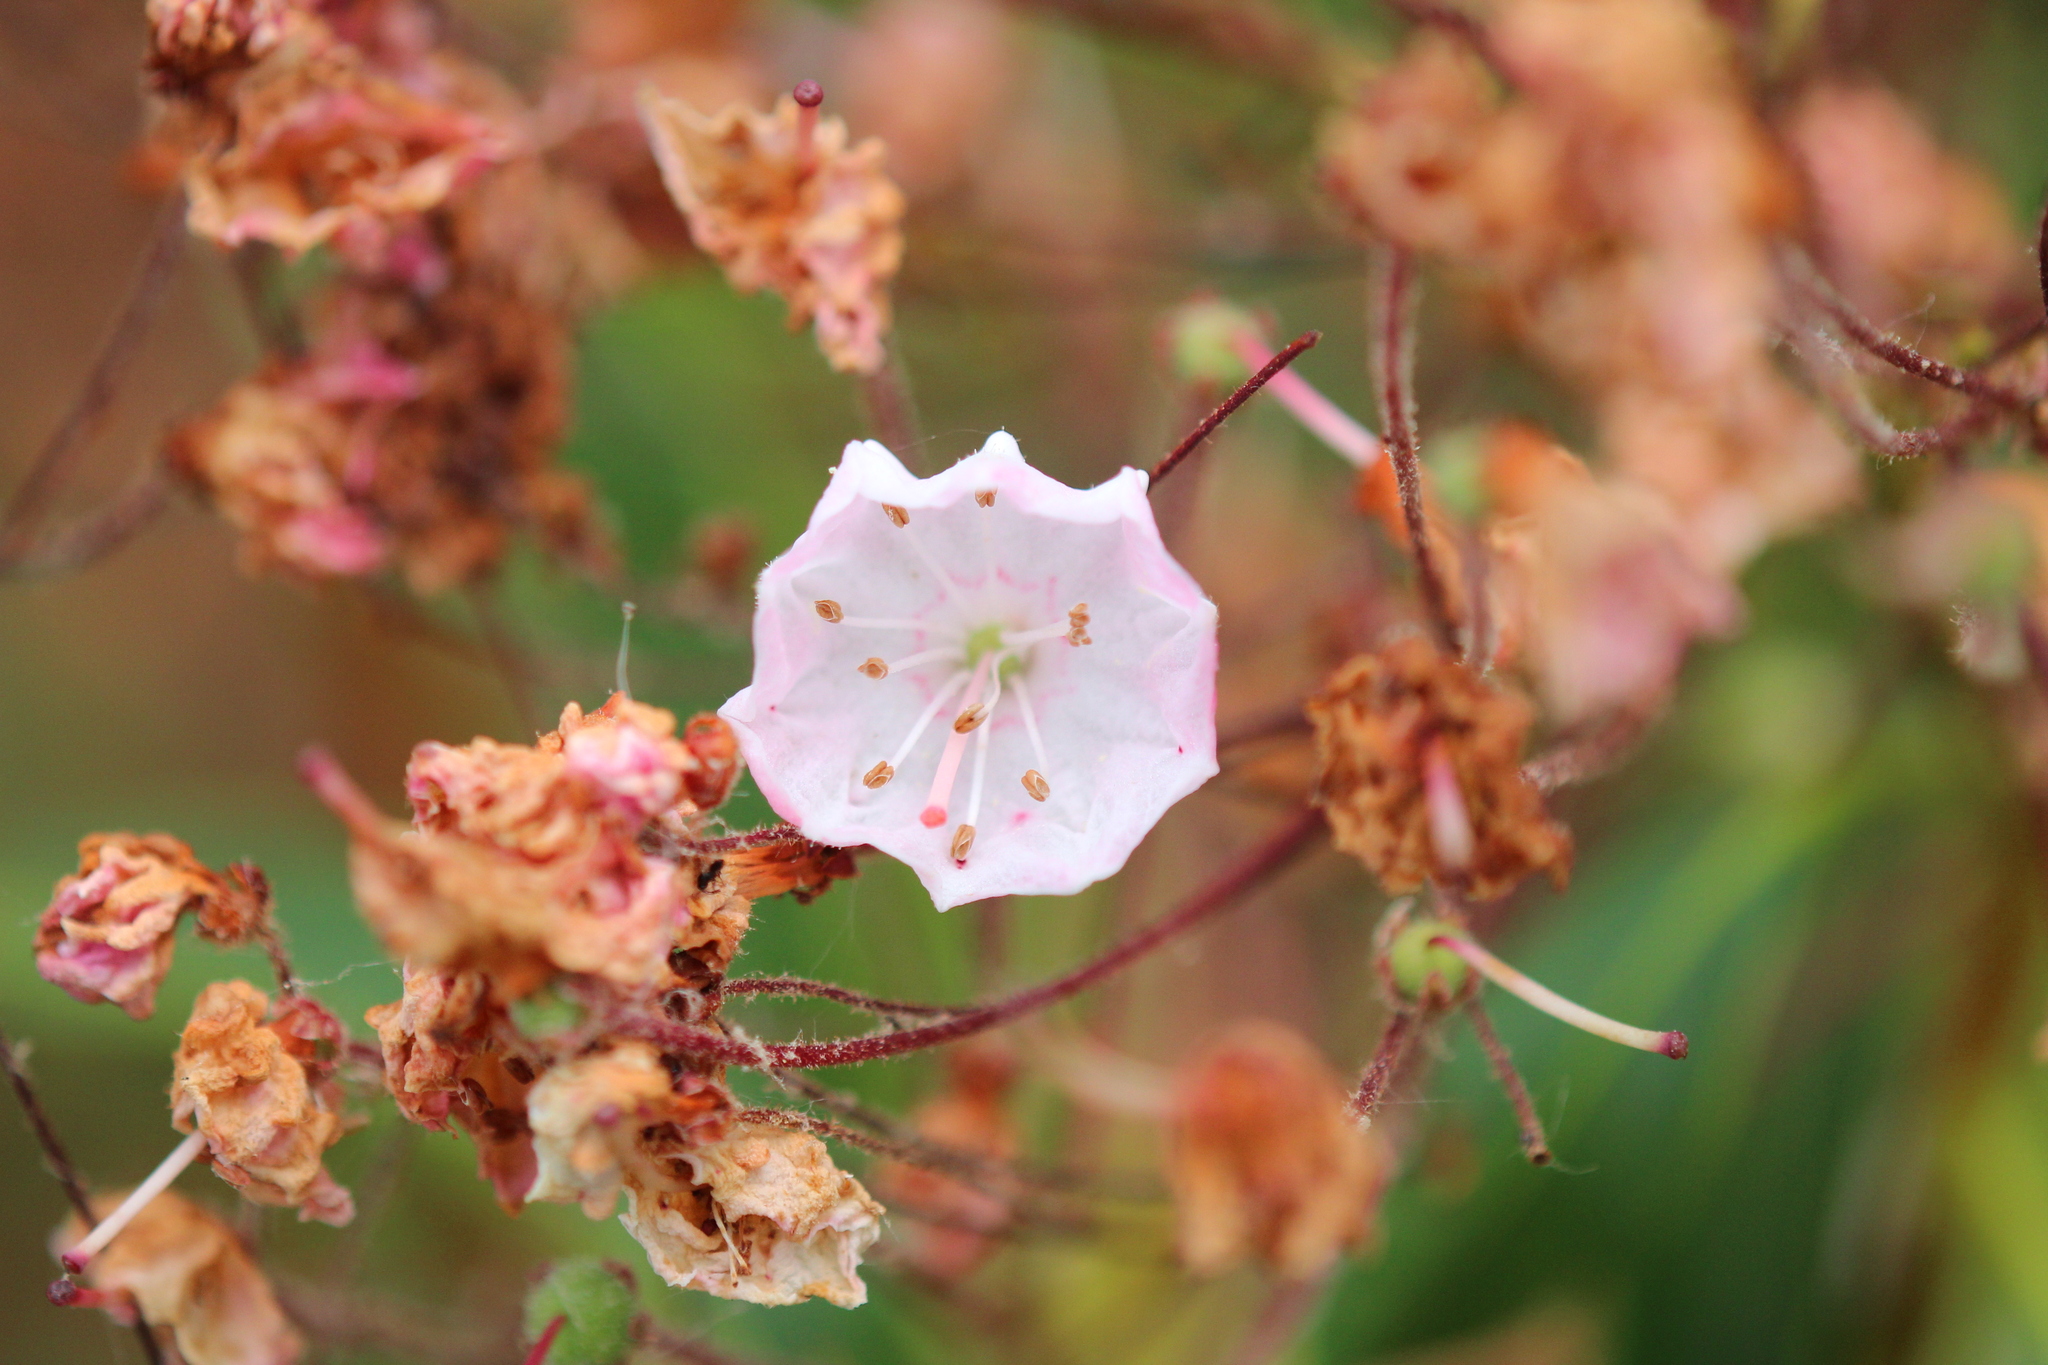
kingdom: Plantae
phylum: Tracheophyta
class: Magnoliopsida
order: Ericales
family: Ericaceae
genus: Kalmia
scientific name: Kalmia latifolia
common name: Mountain-laurel
